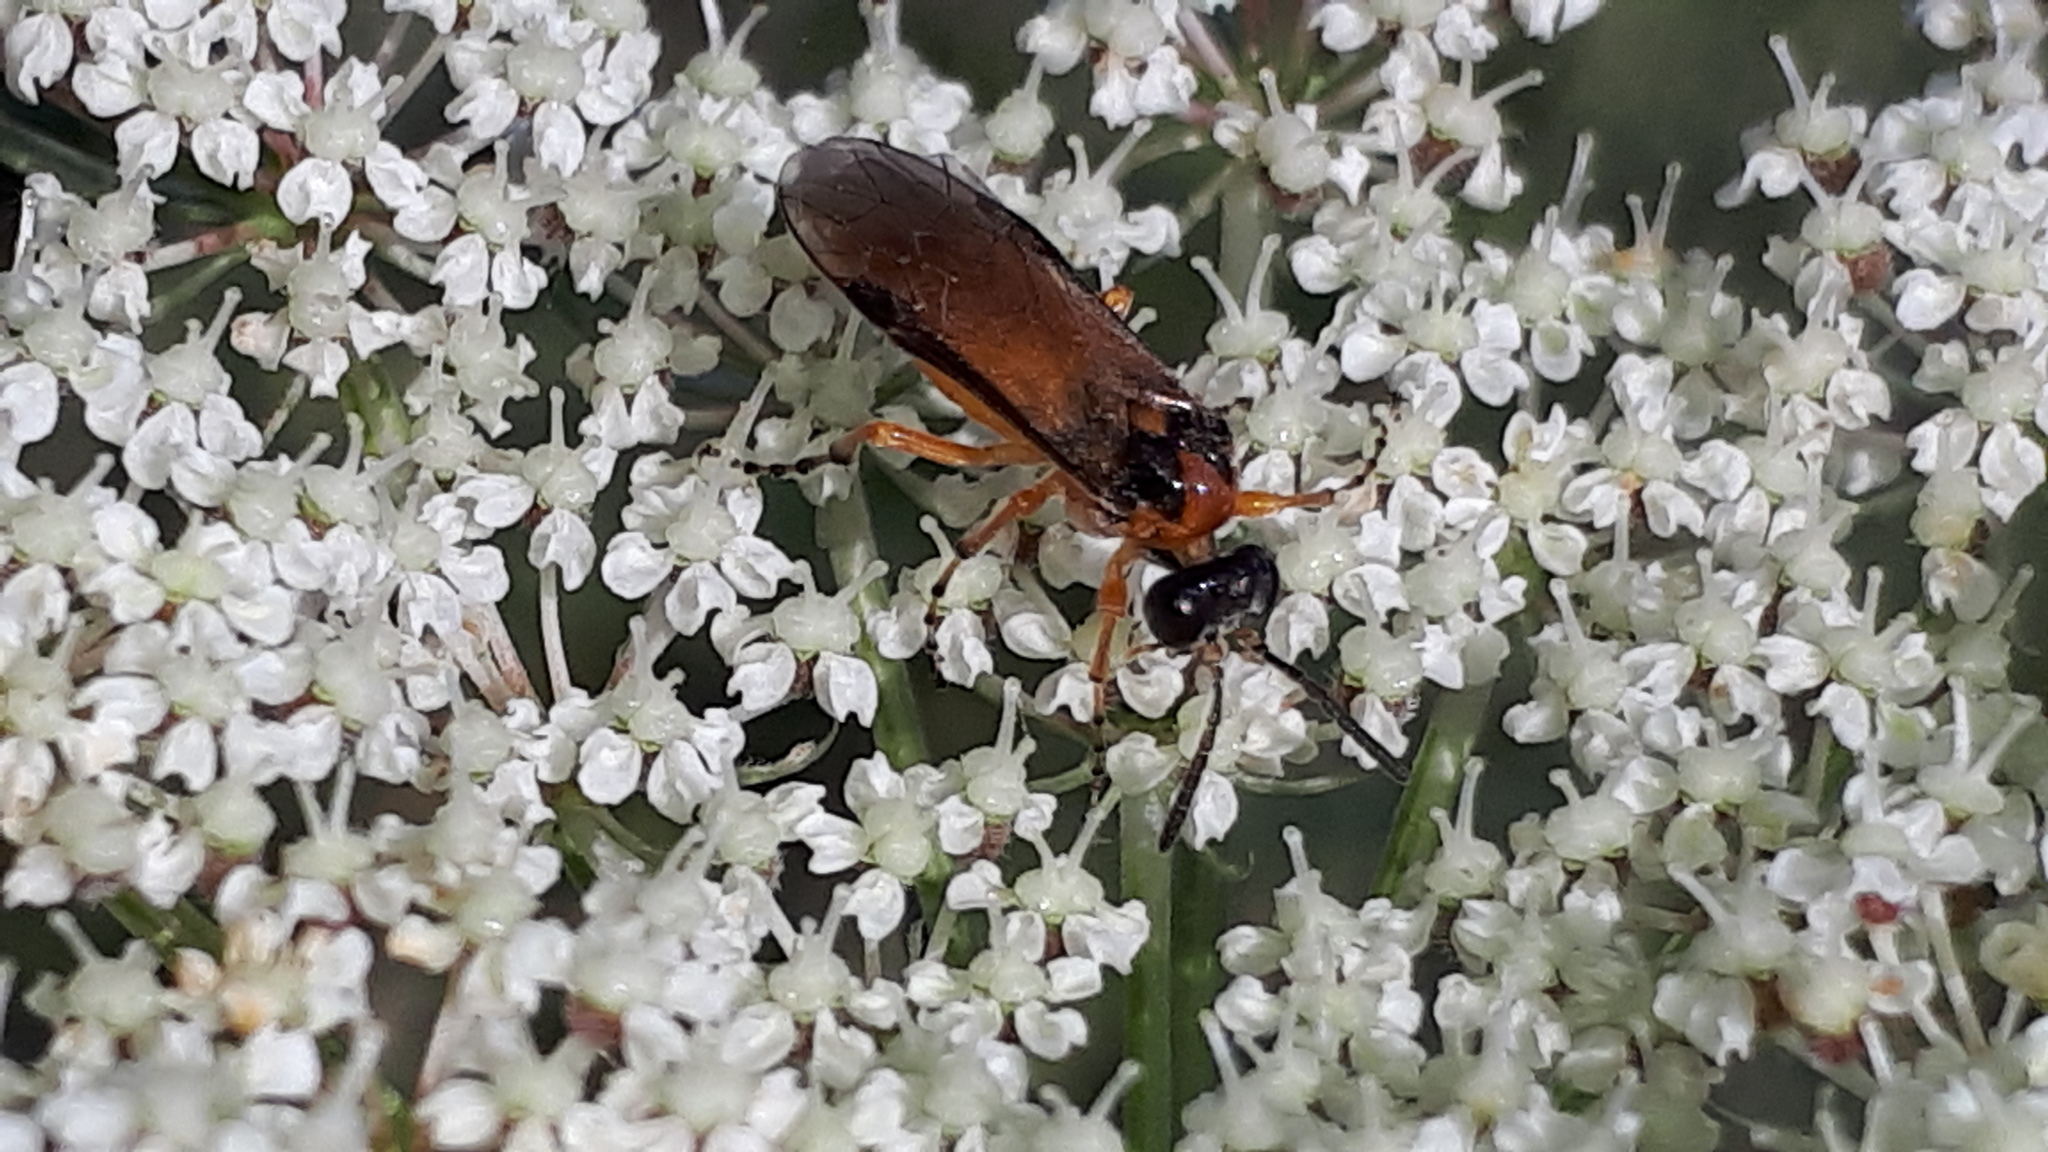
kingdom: Animalia
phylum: Arthropoda
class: Insecta
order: Hymenoptera
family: Tenthredinidae
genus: Athalia
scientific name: Athalia rosae
